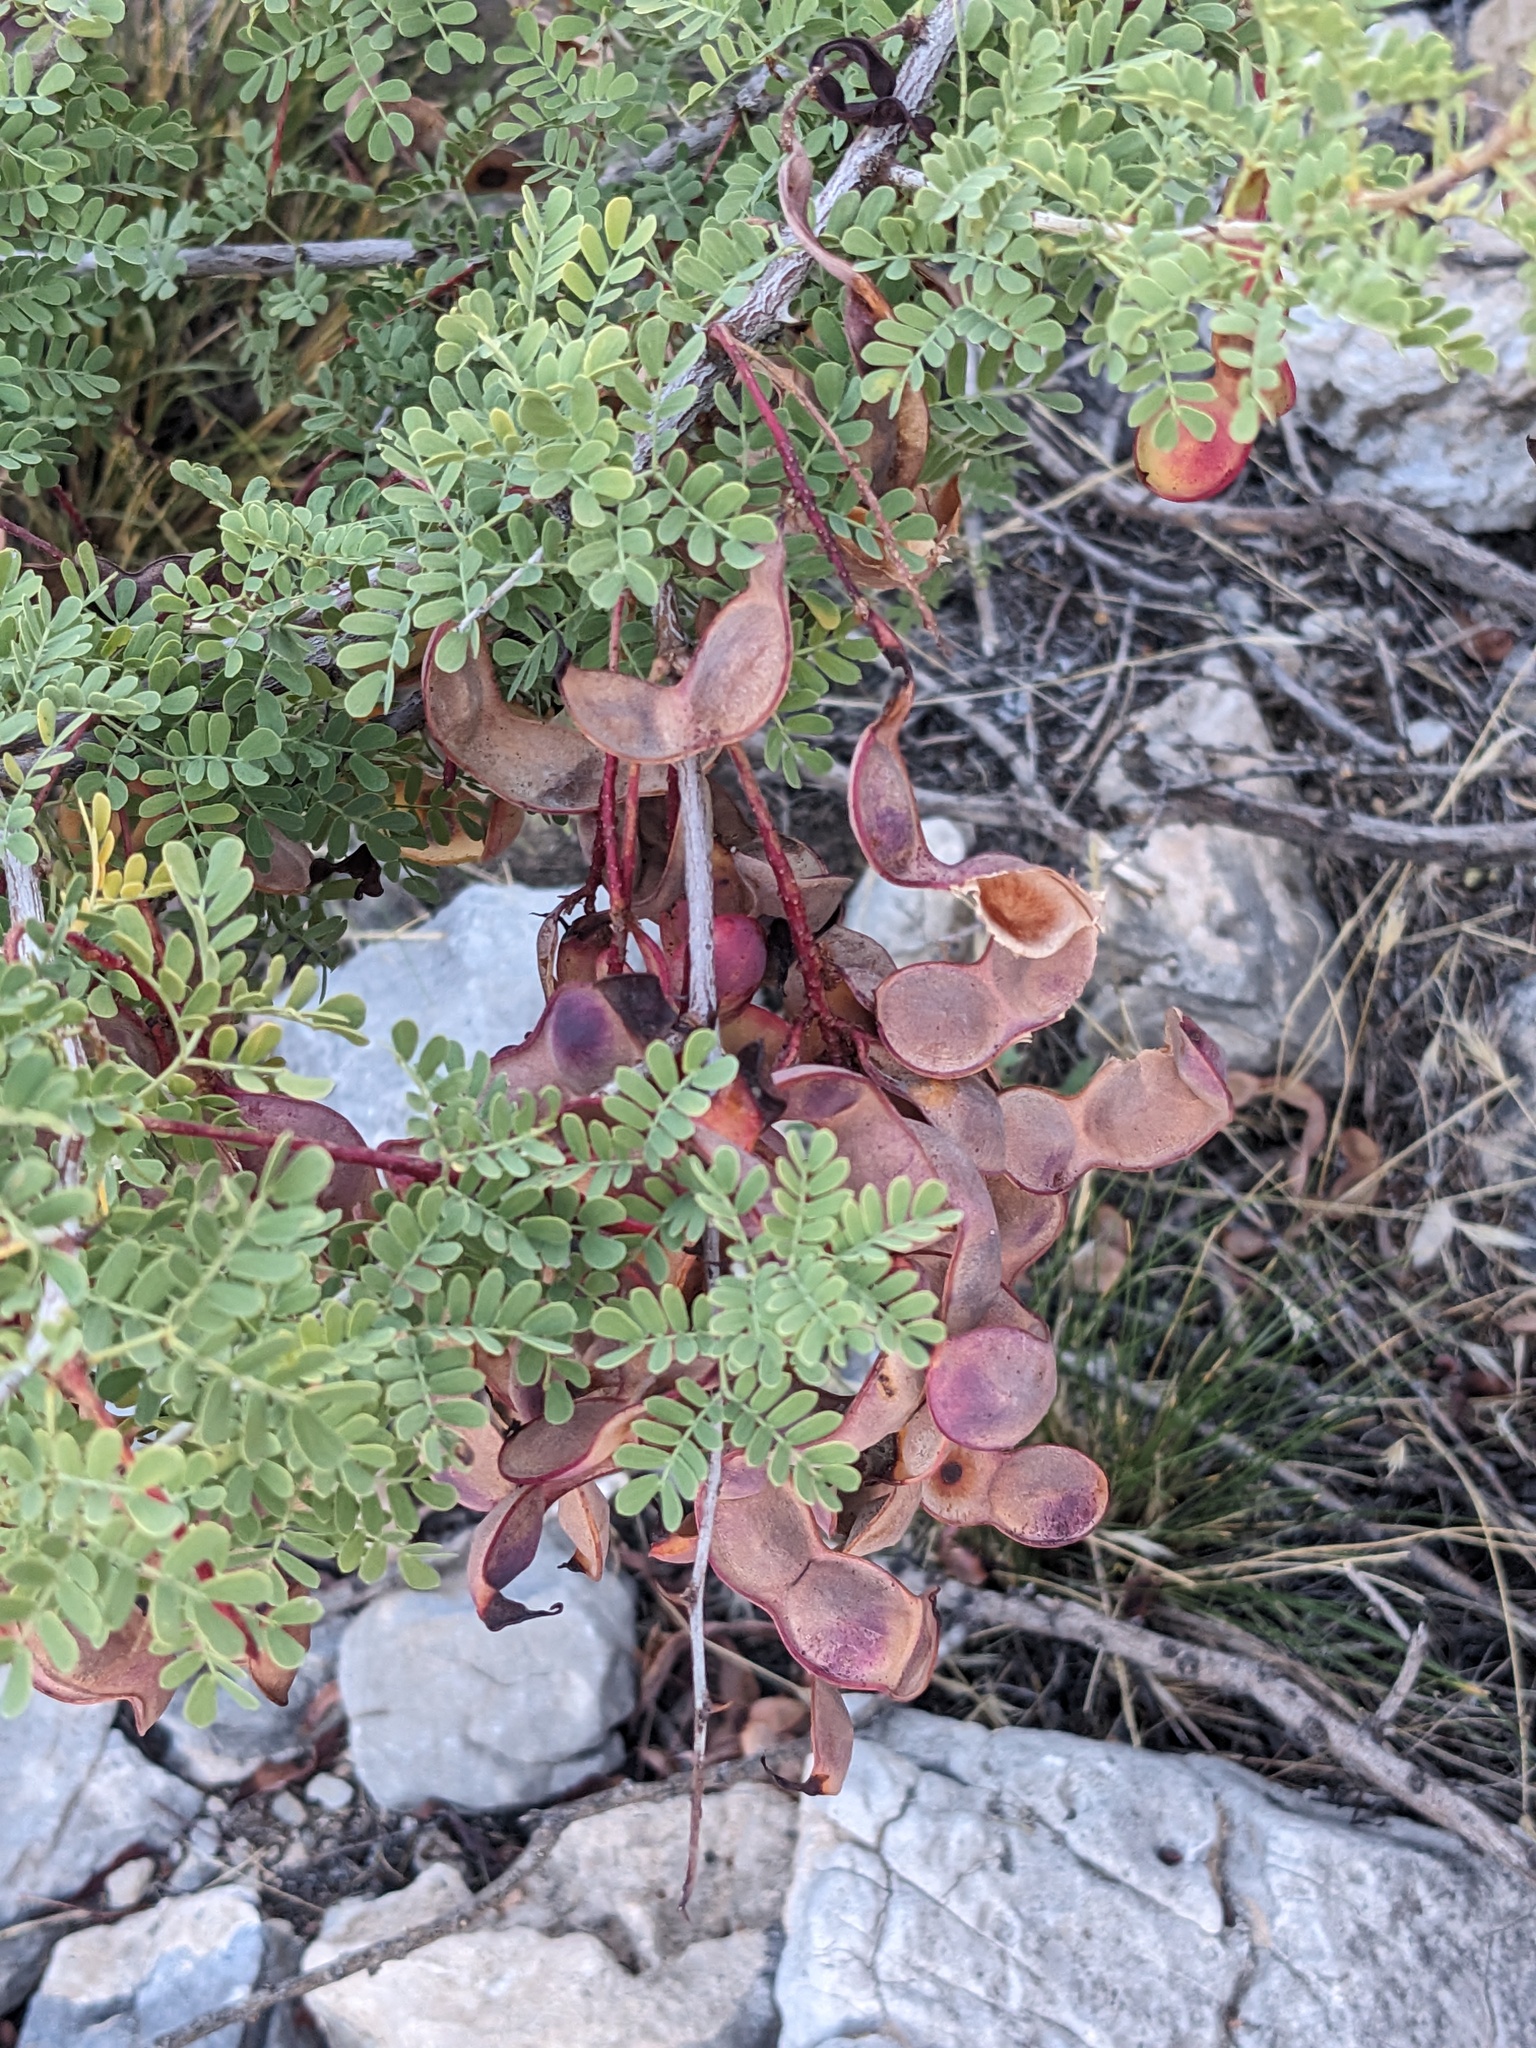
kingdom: Plantae
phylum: Tracheophyta
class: Magnoliopsida
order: Fabales
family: Fabaceae
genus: Senegalia
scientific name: Senegalia greggii
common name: Texas-mimosa
